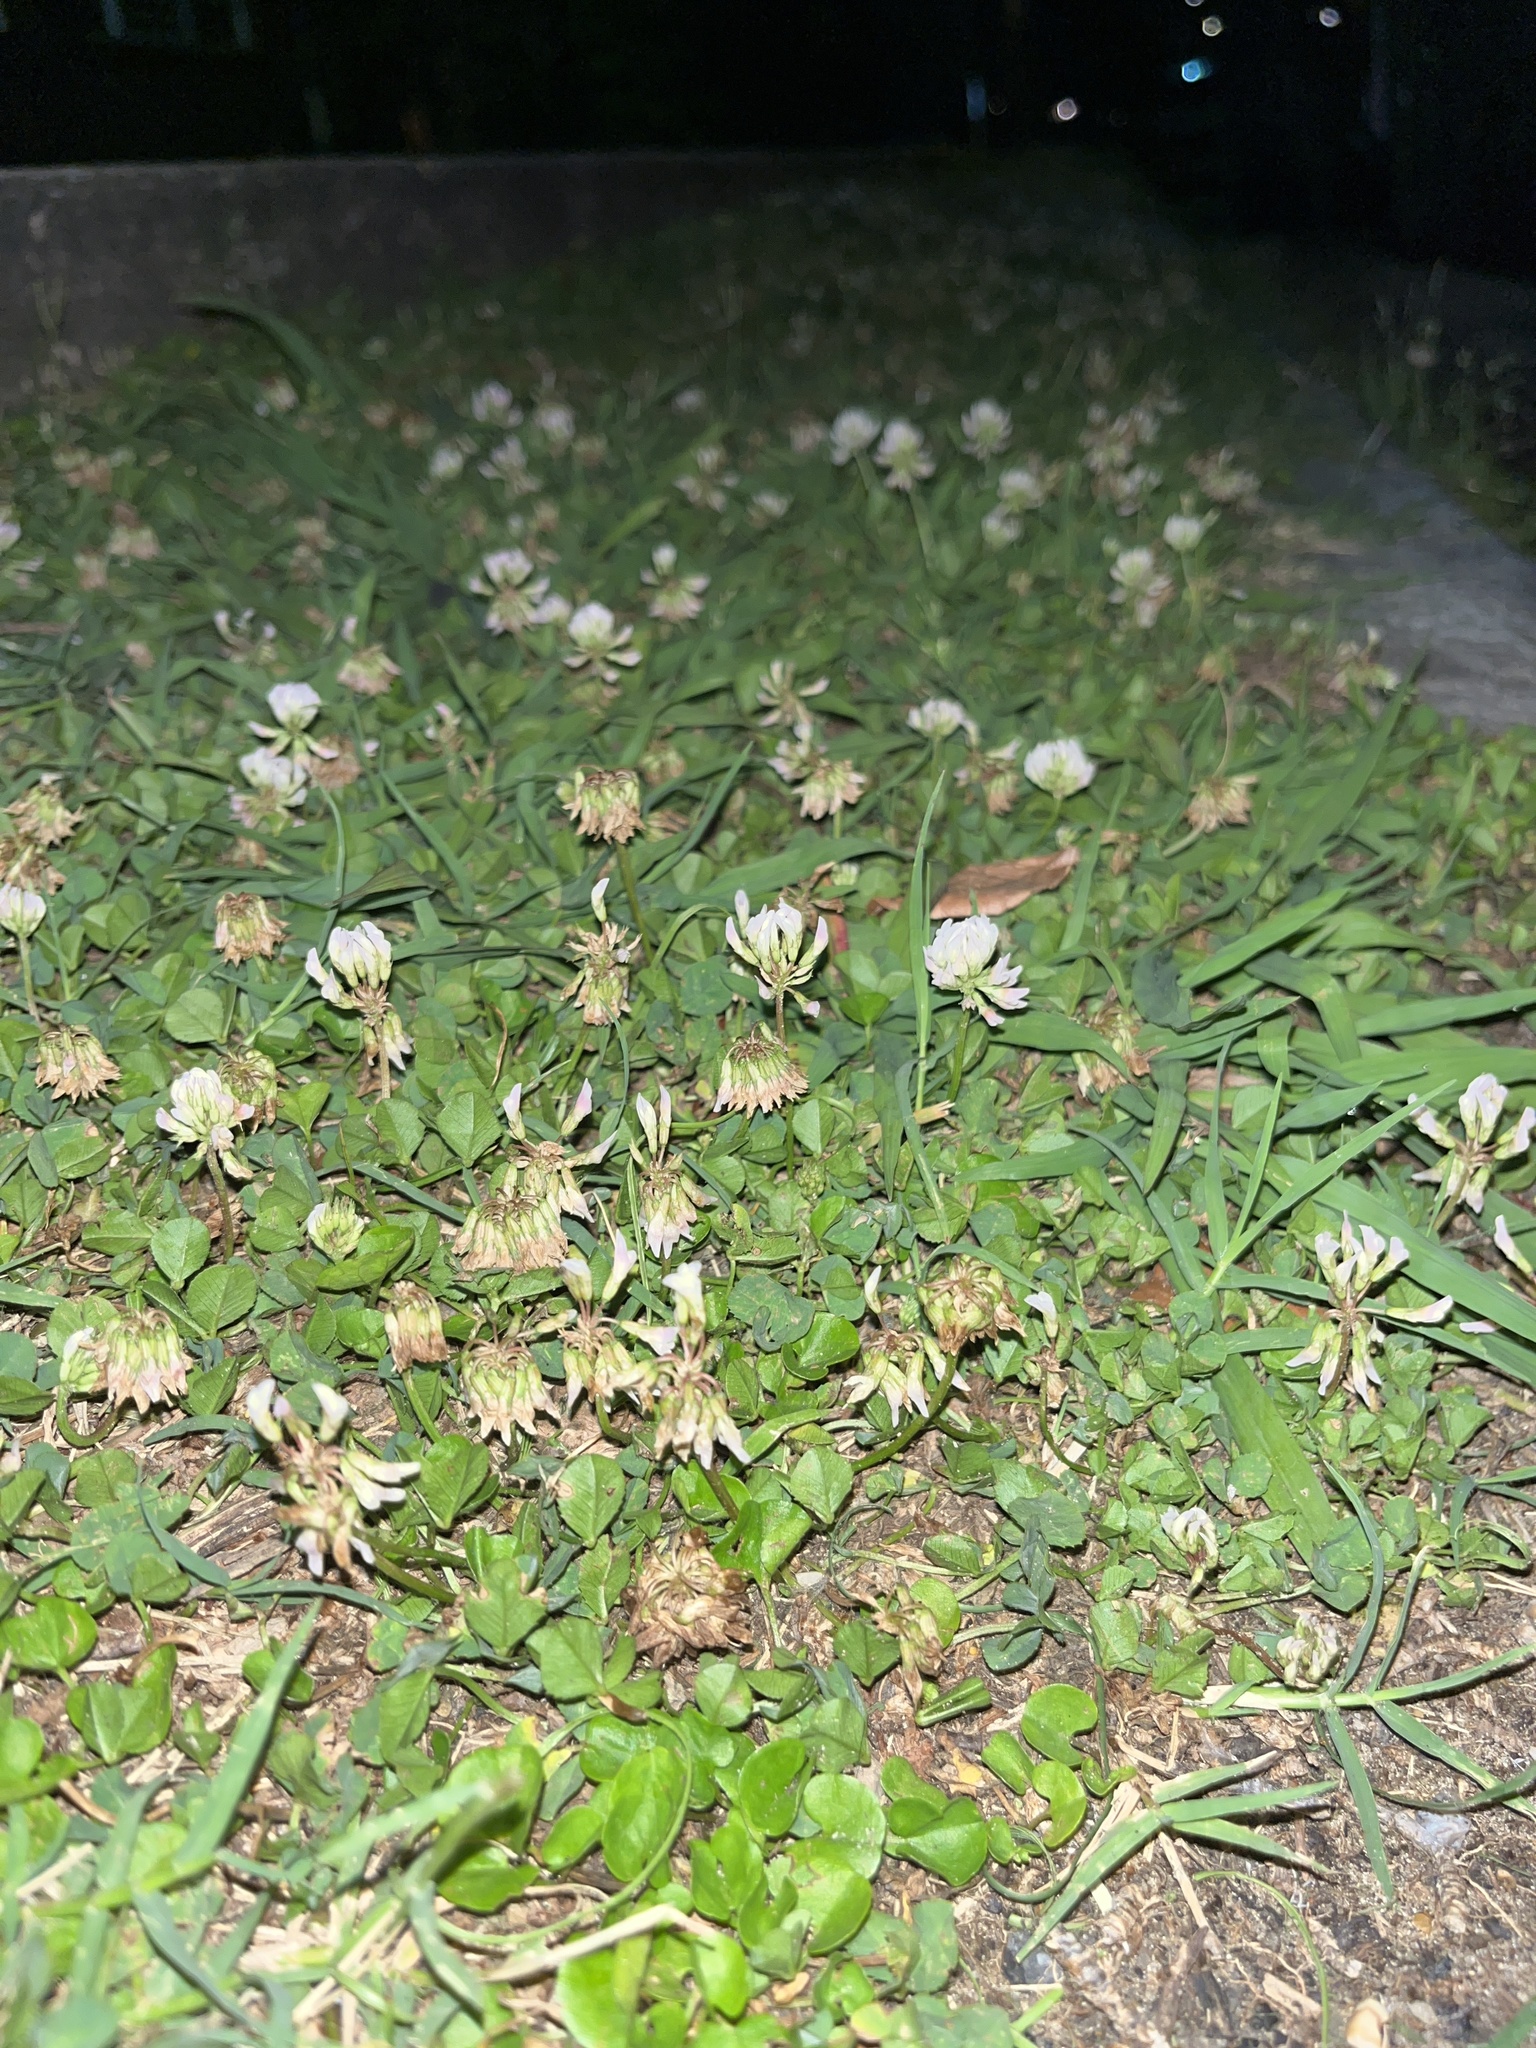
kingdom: Plantae
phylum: Tracheophyta
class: Magnoliopsida
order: Fabales
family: Fabaceae
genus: Trifolium
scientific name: Trifolium repens
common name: White clover
